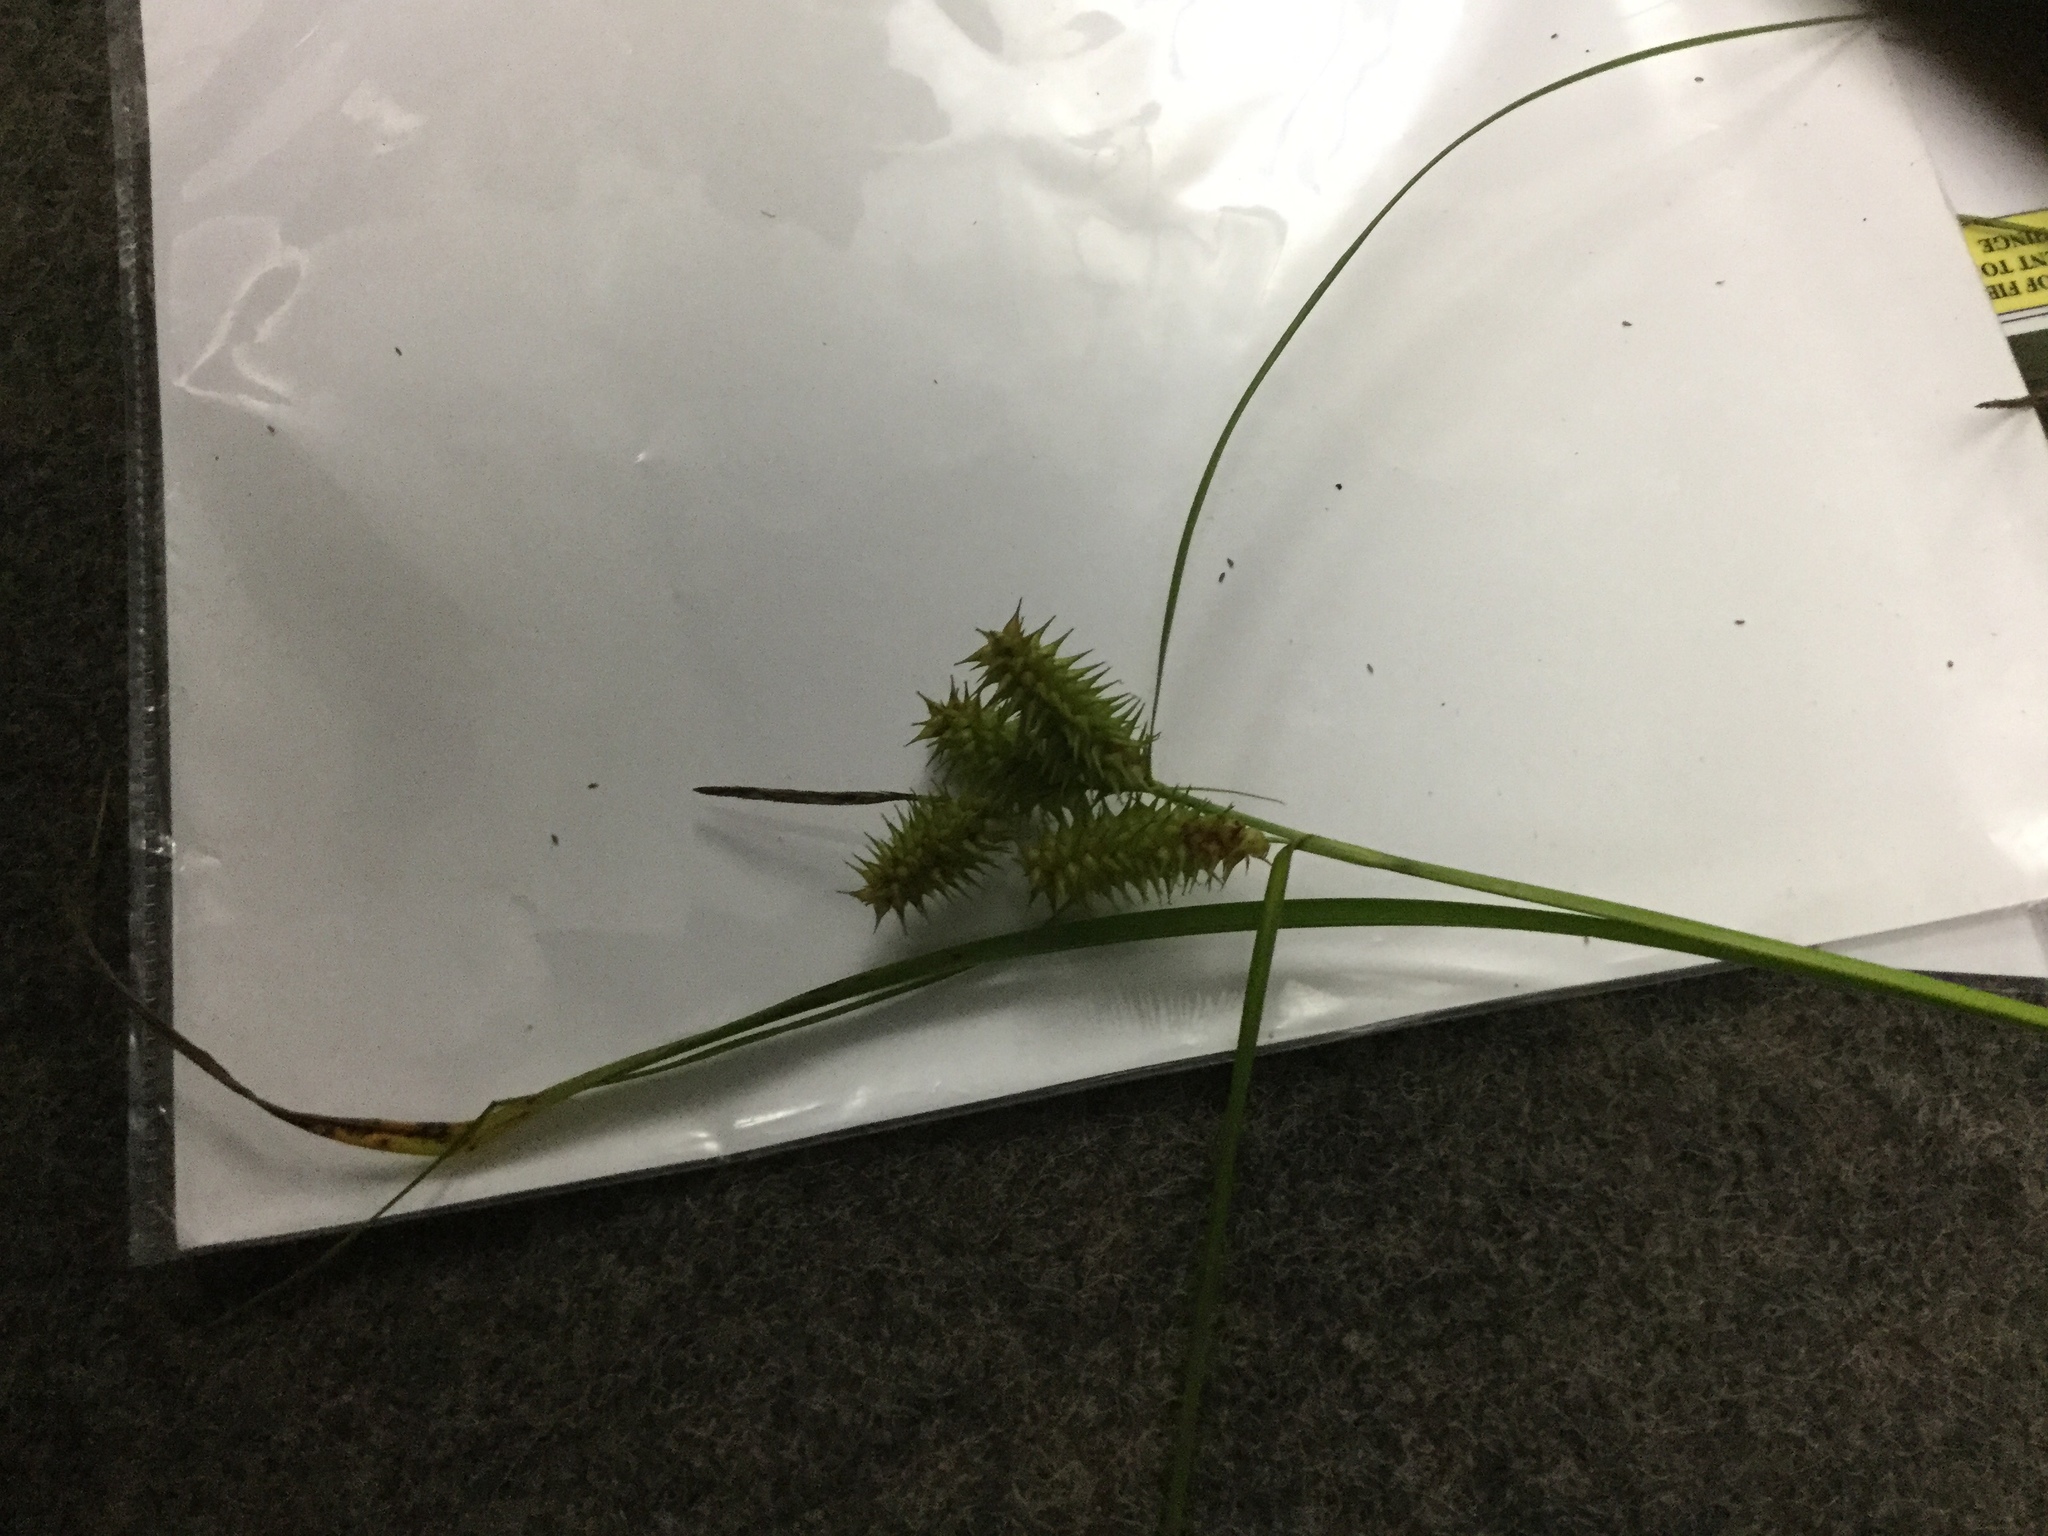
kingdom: Plantae
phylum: Tracheophyta
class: Liliopsida
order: Poales
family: Cyperaceae
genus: Carex
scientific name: Carex retrorsa
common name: Knot-sheath sedge
